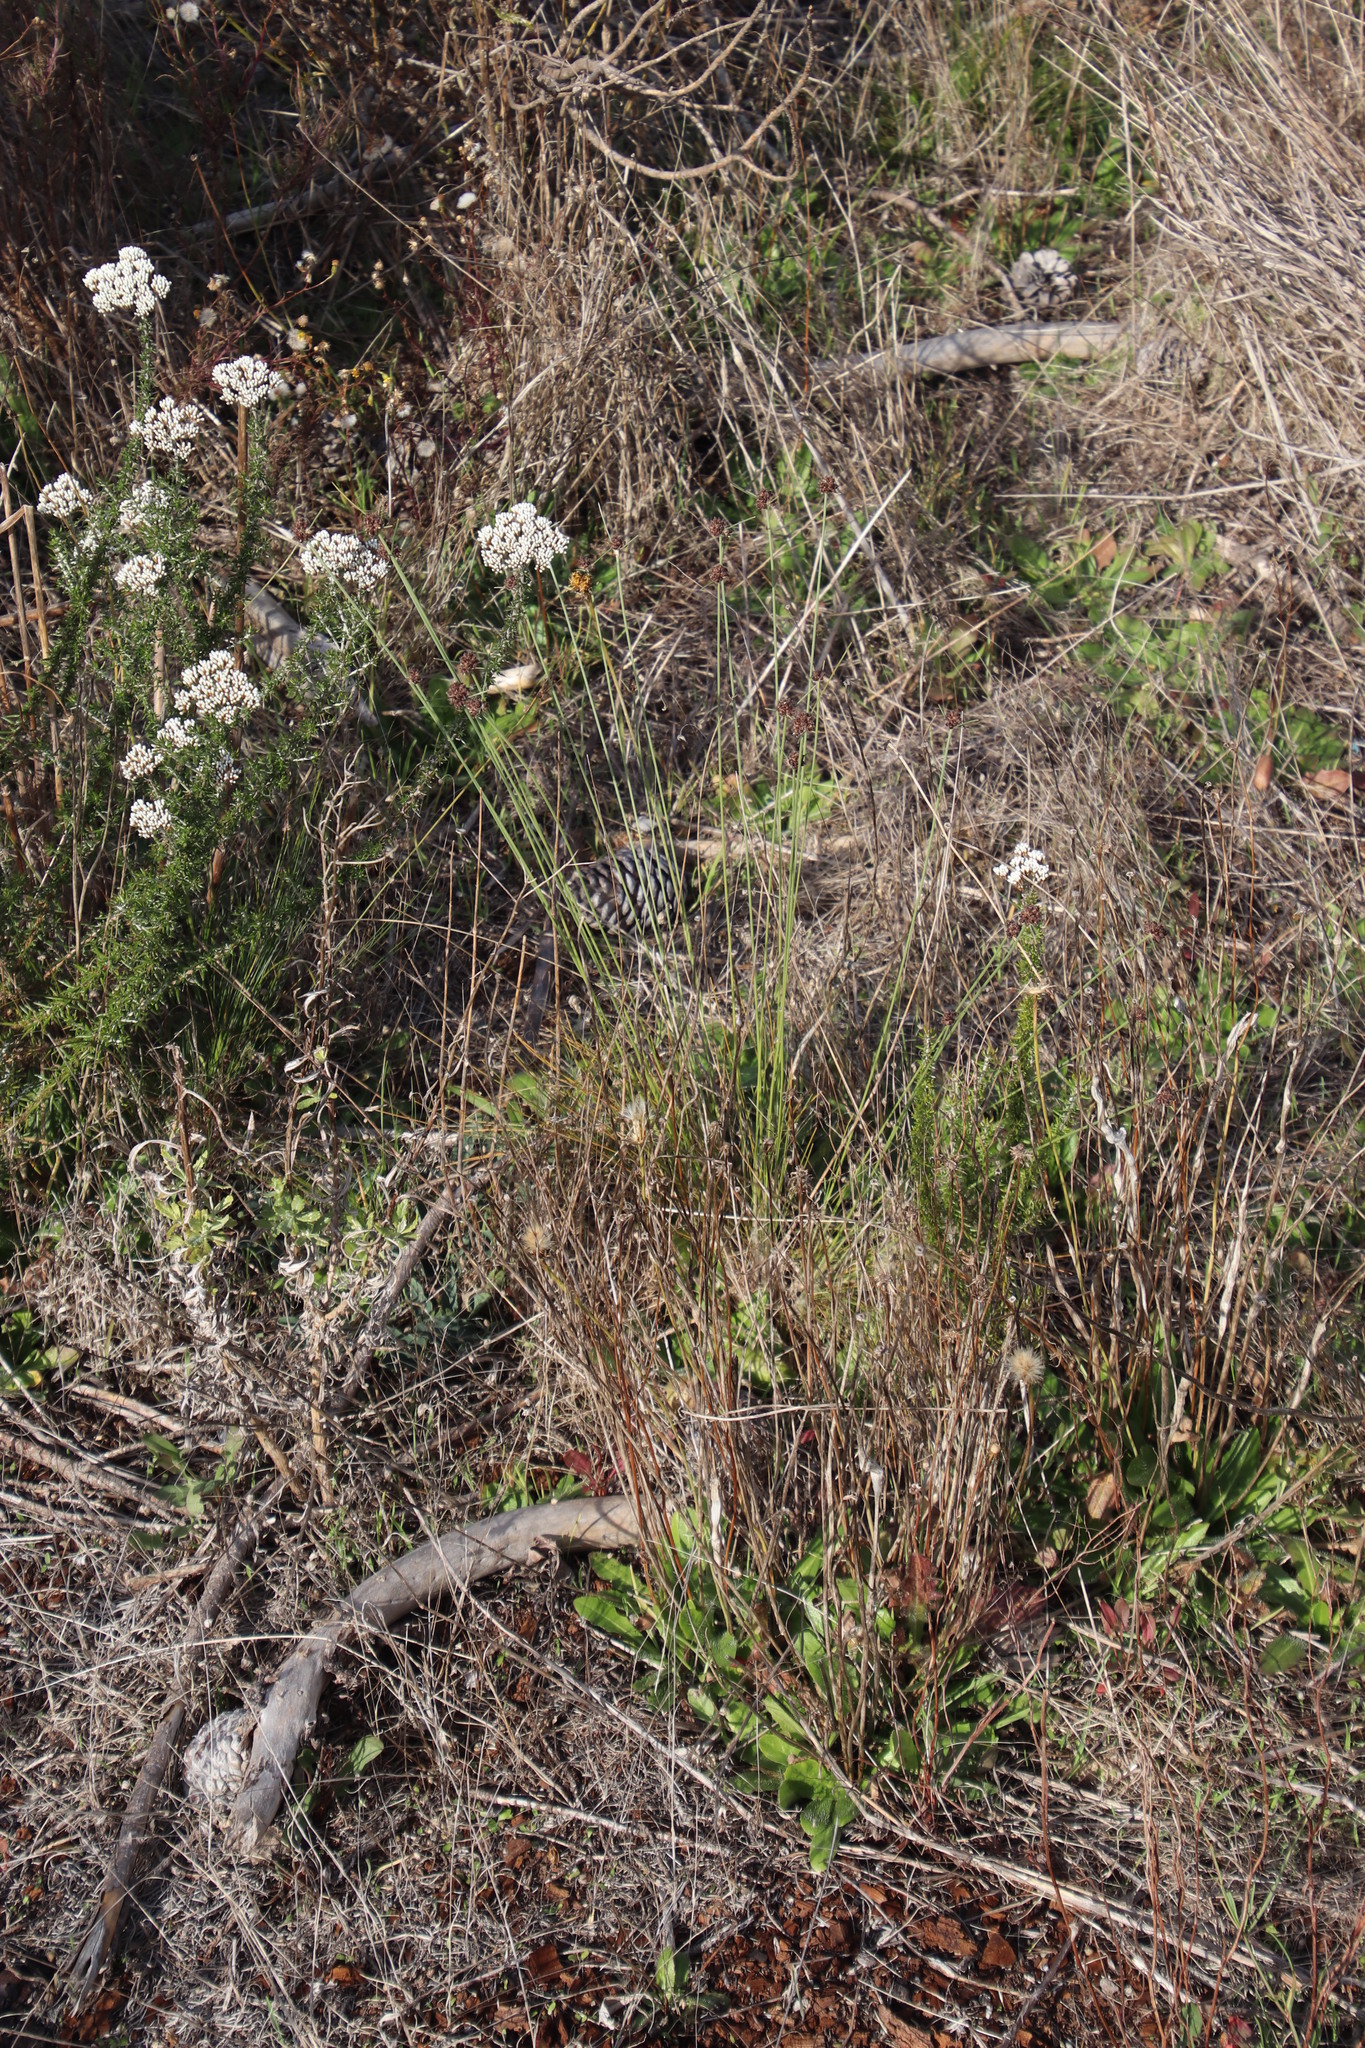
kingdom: Plantae
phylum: Tracheophyta
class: Liliopsida
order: Poales
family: Cyperaceae
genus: Ficinia
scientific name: Ficinia paradoxa
